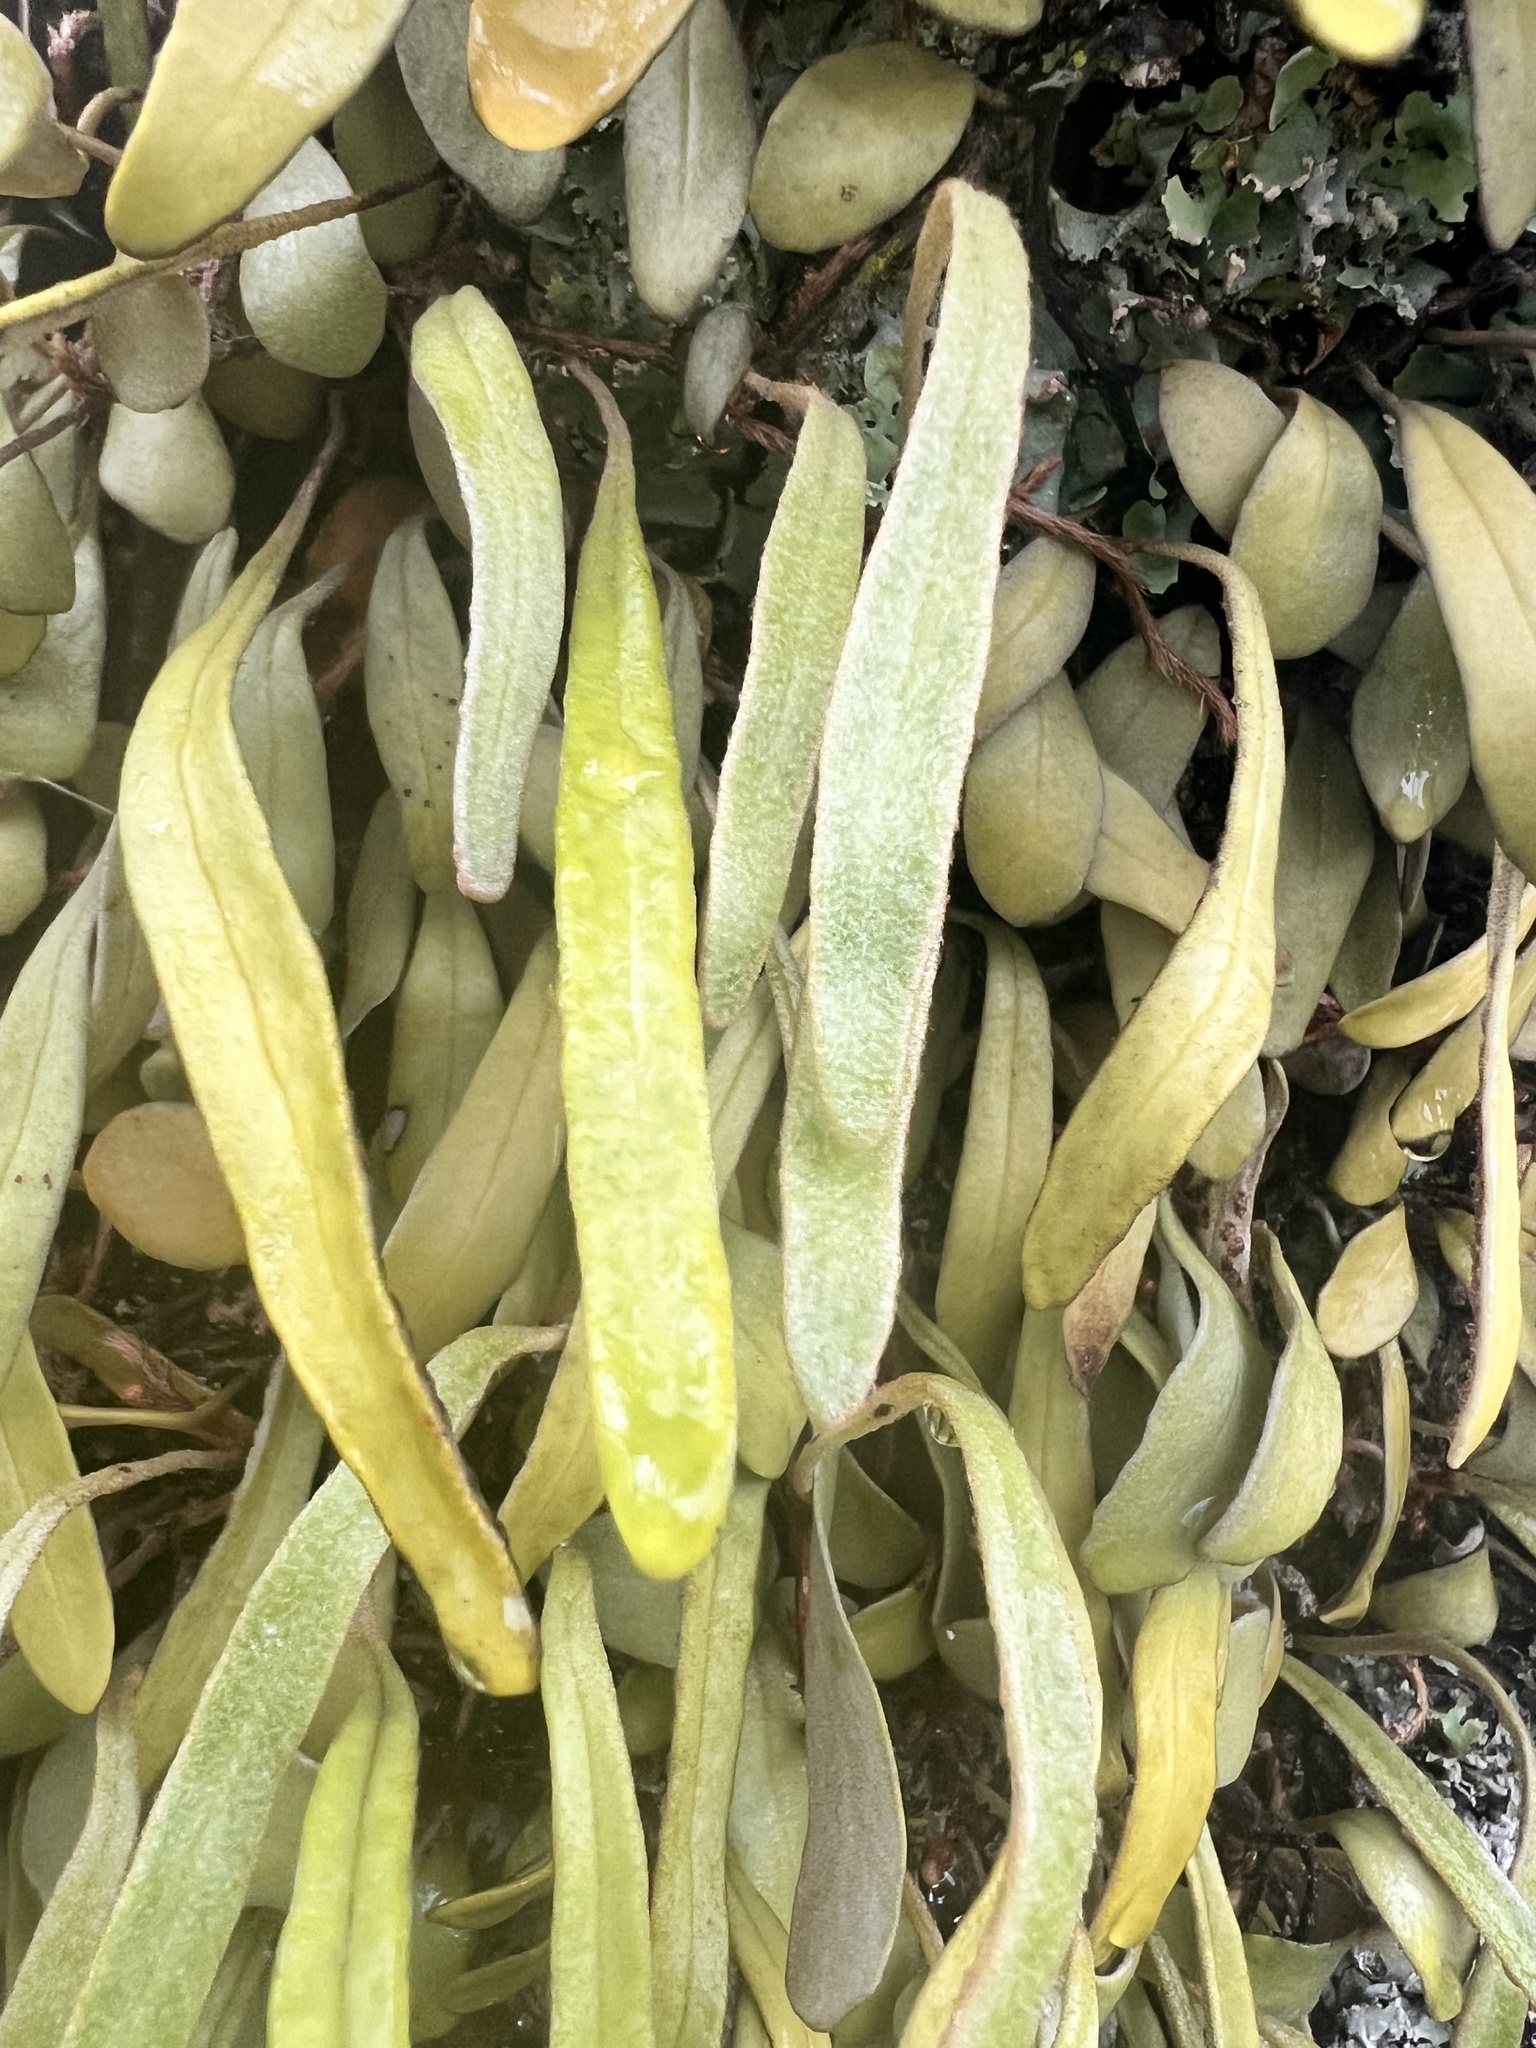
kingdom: Plantae
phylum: Tracheophyta
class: Polypodiopsida
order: Polypodiales
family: Polypodiaceae
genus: Pyrrosia
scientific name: Pyrrosia eleagnifolia
